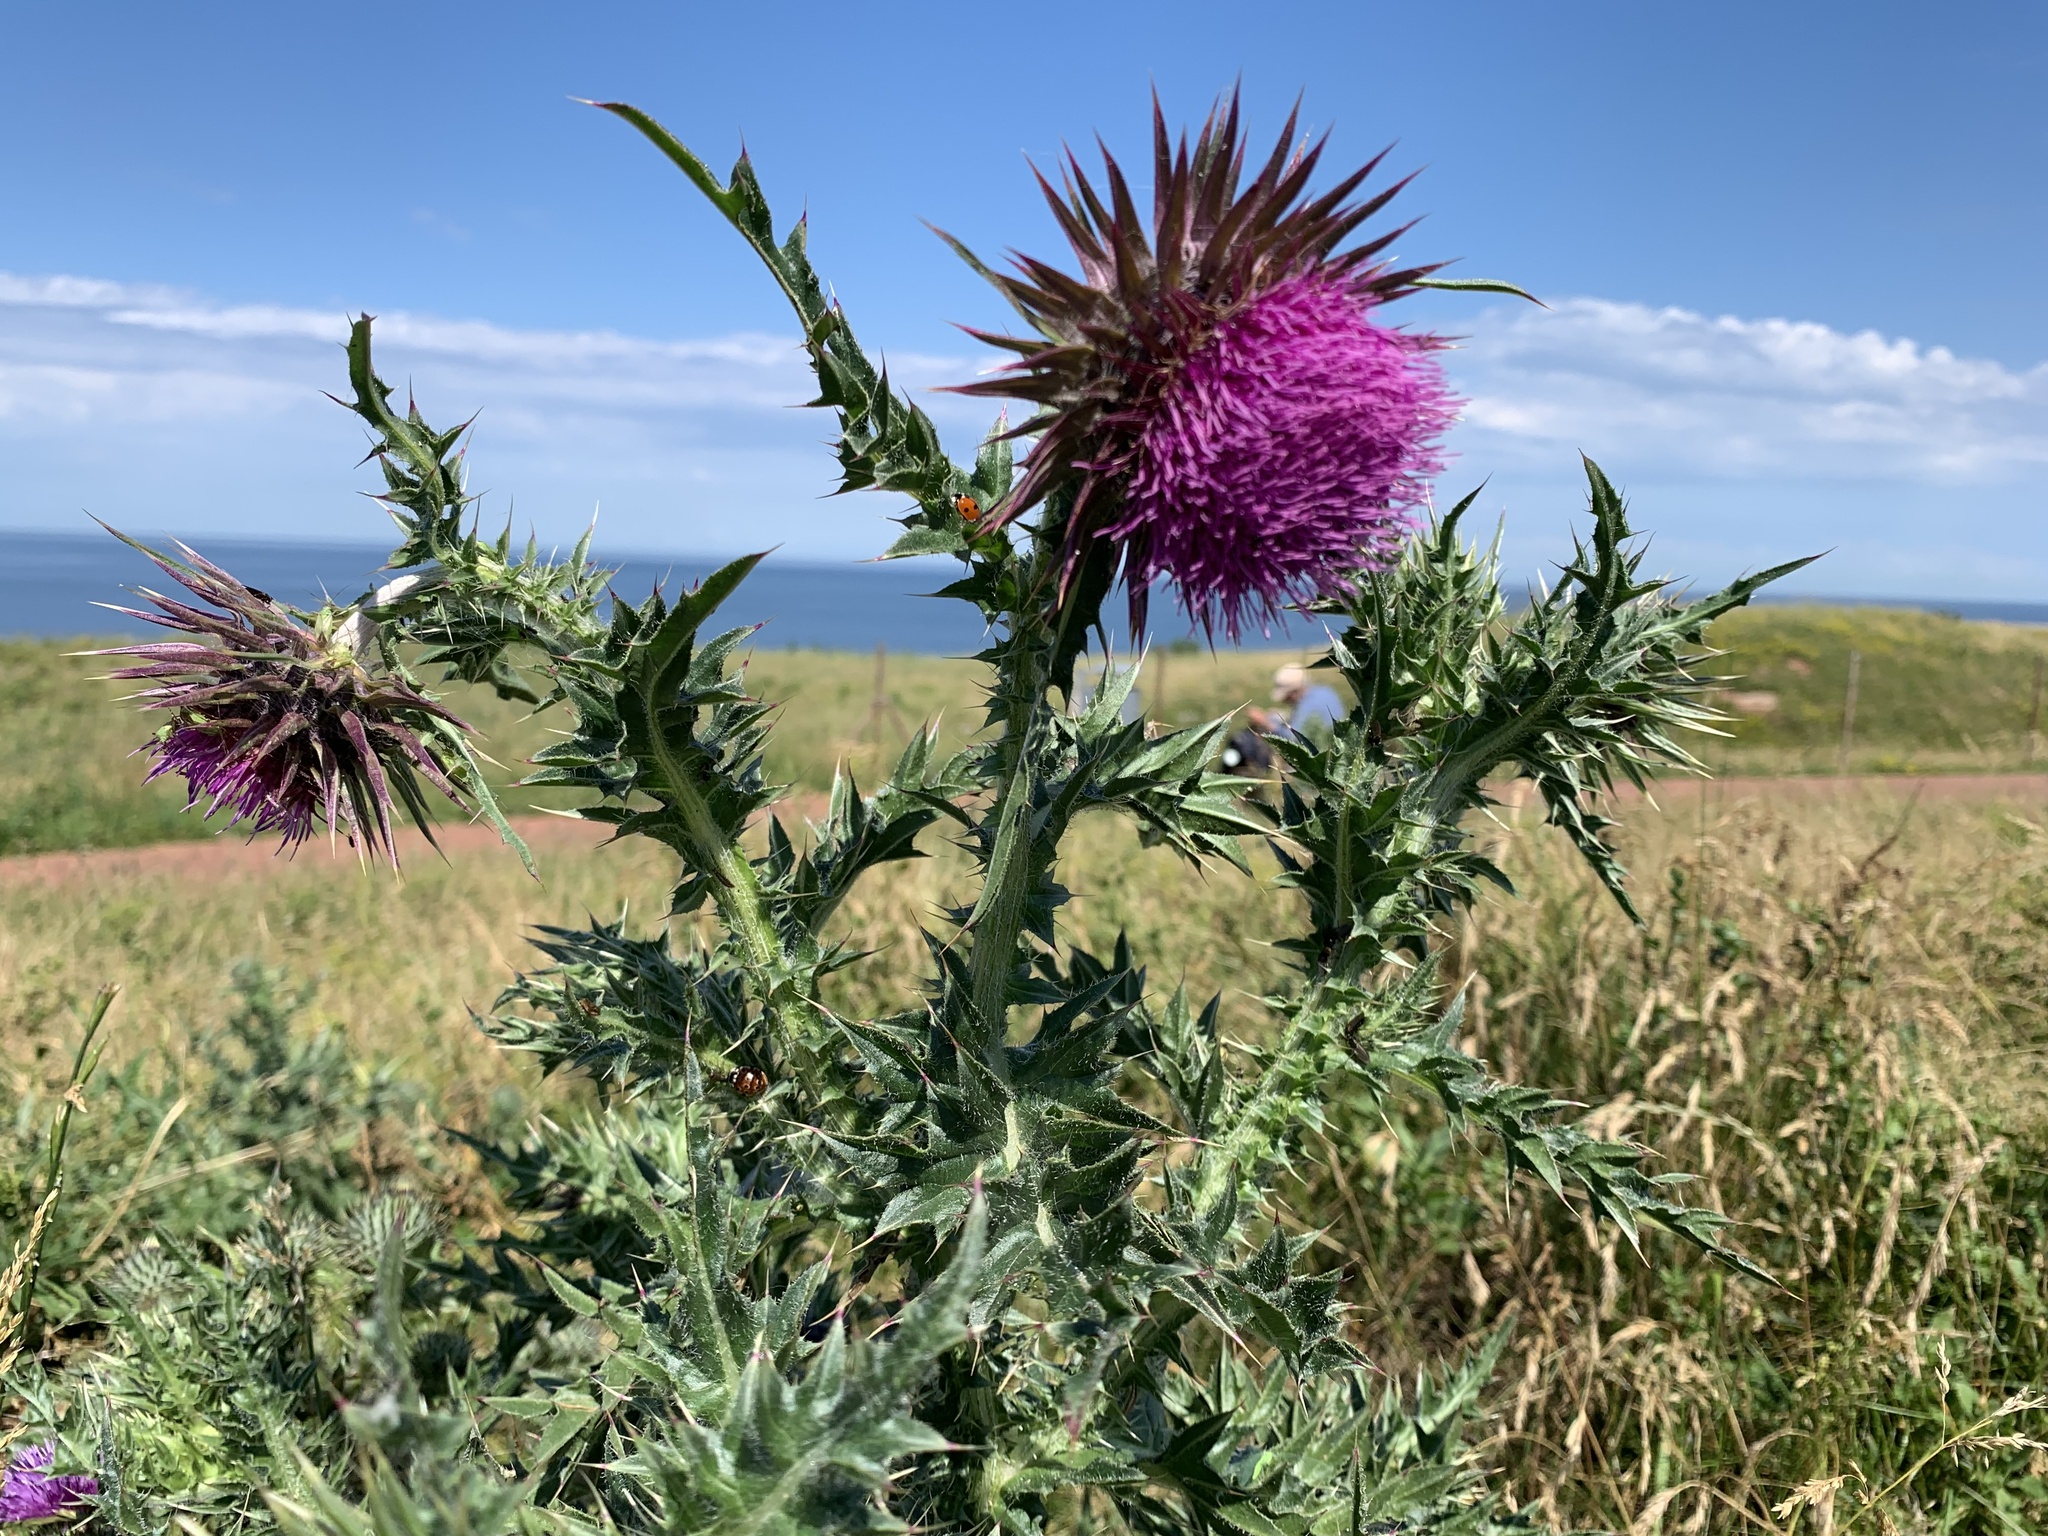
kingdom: Plantae
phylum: Tracheophyta
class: Magnoliopsida
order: Asterales
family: Asteraceae
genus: Carduus
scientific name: Carduus nutans
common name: Musk thistle
